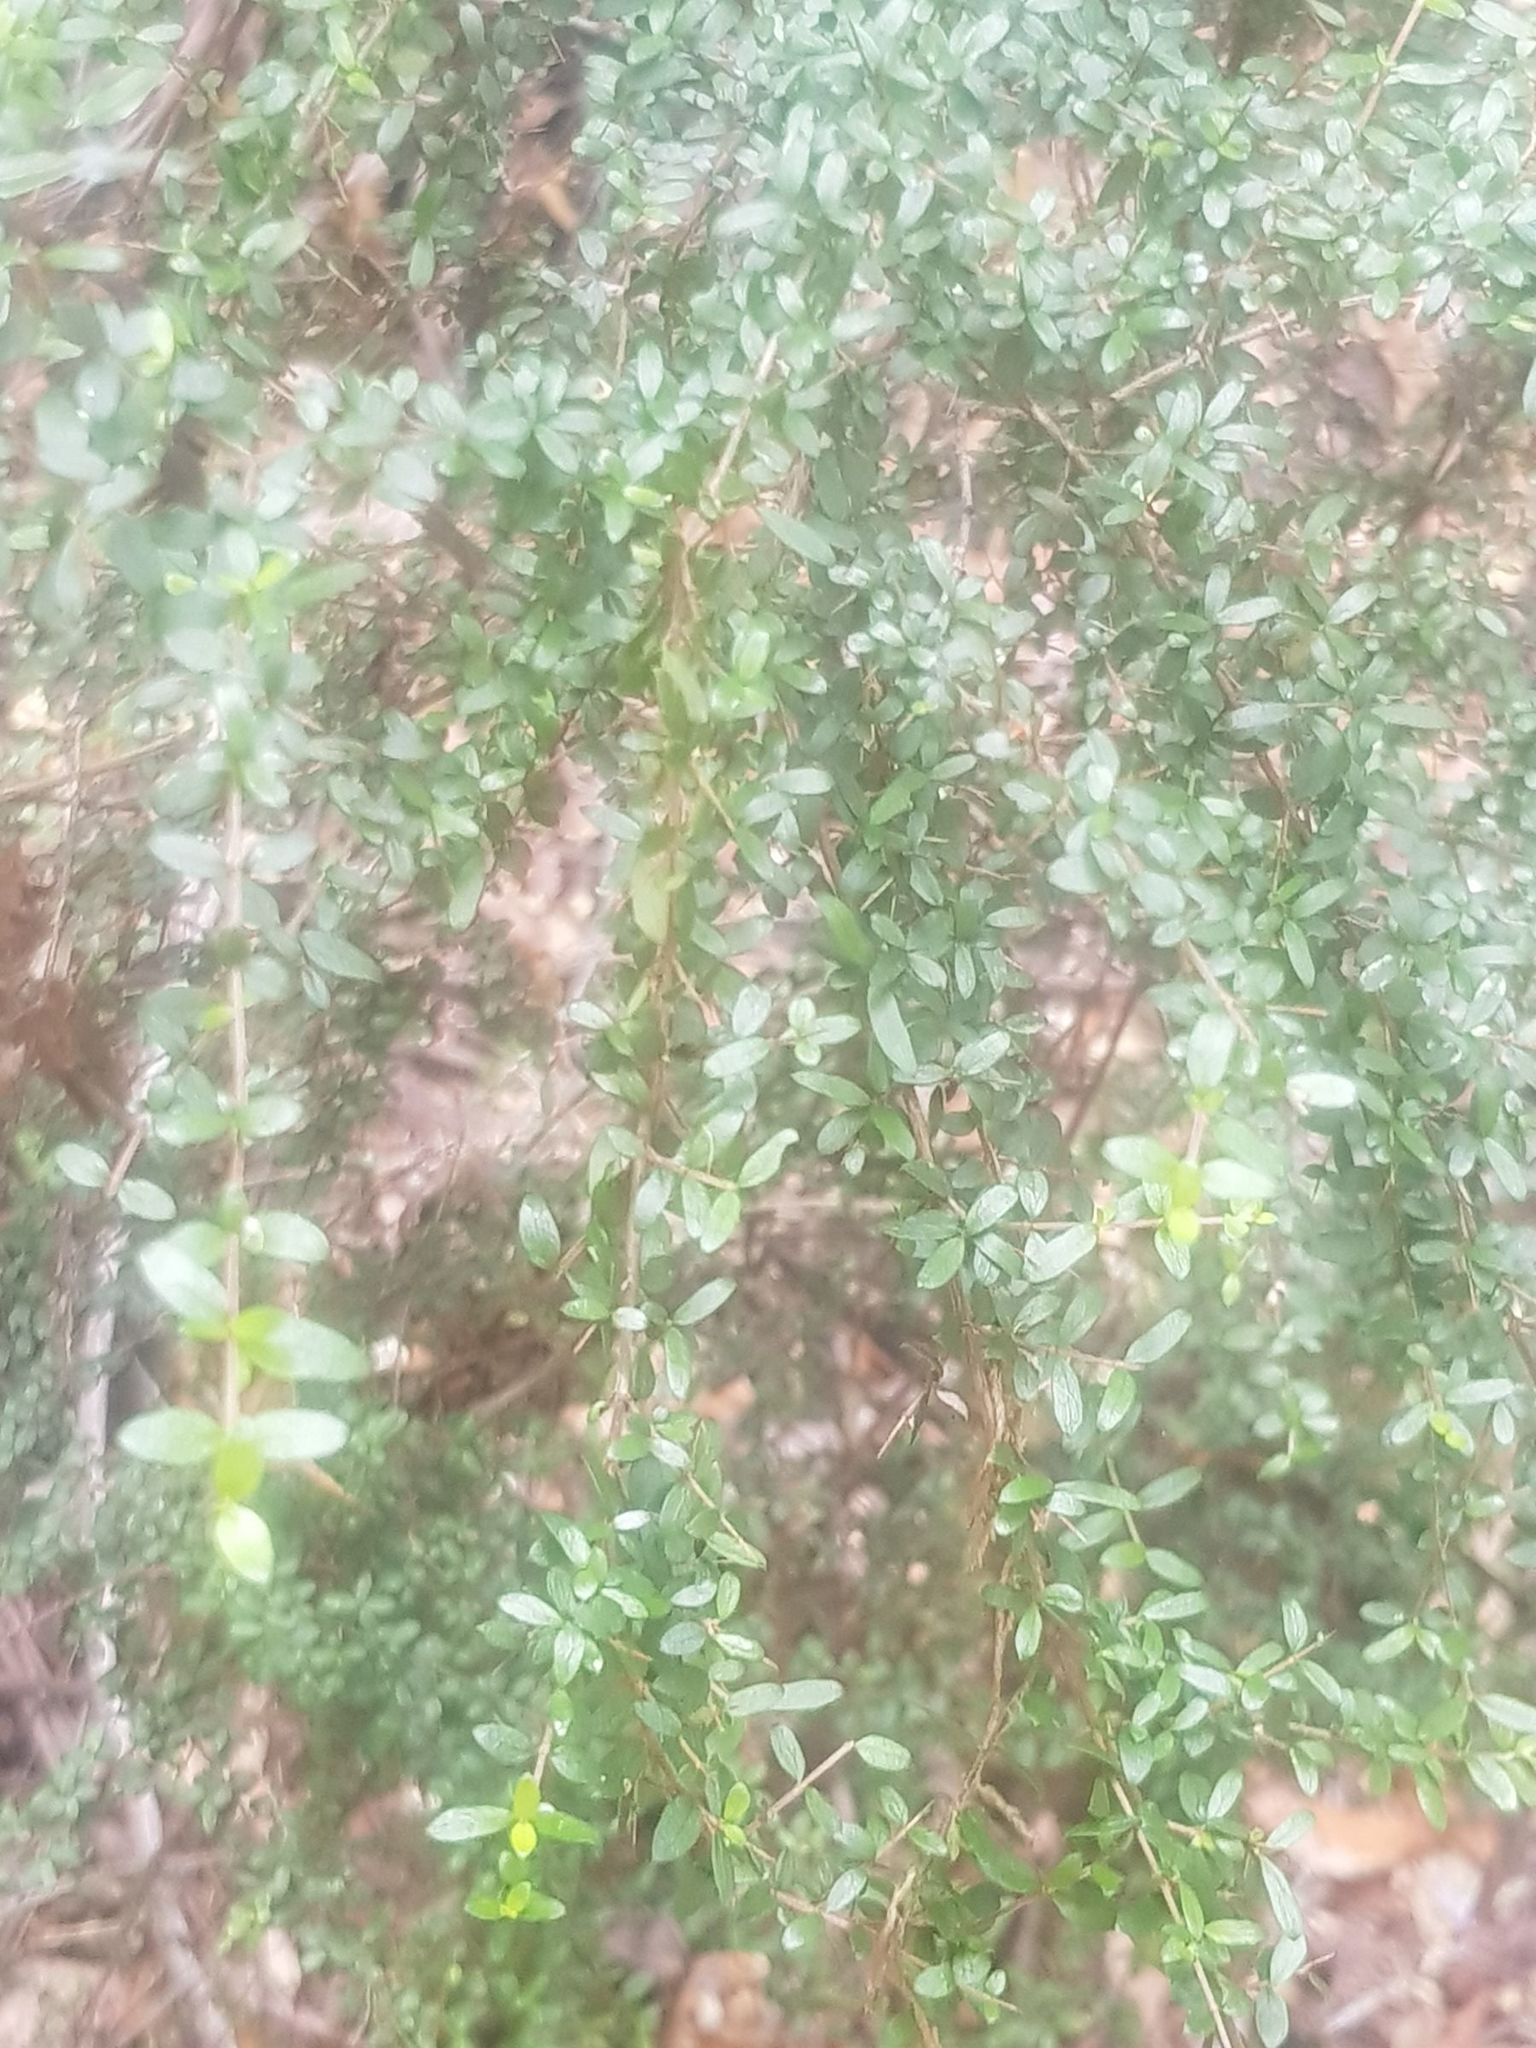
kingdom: Plantae
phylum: Tracheophyta
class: Magnoliopsida
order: Gentianales
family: Rubiaceae
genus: Coprosma
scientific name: Coprosma quadrifida
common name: Prickly currantbush
